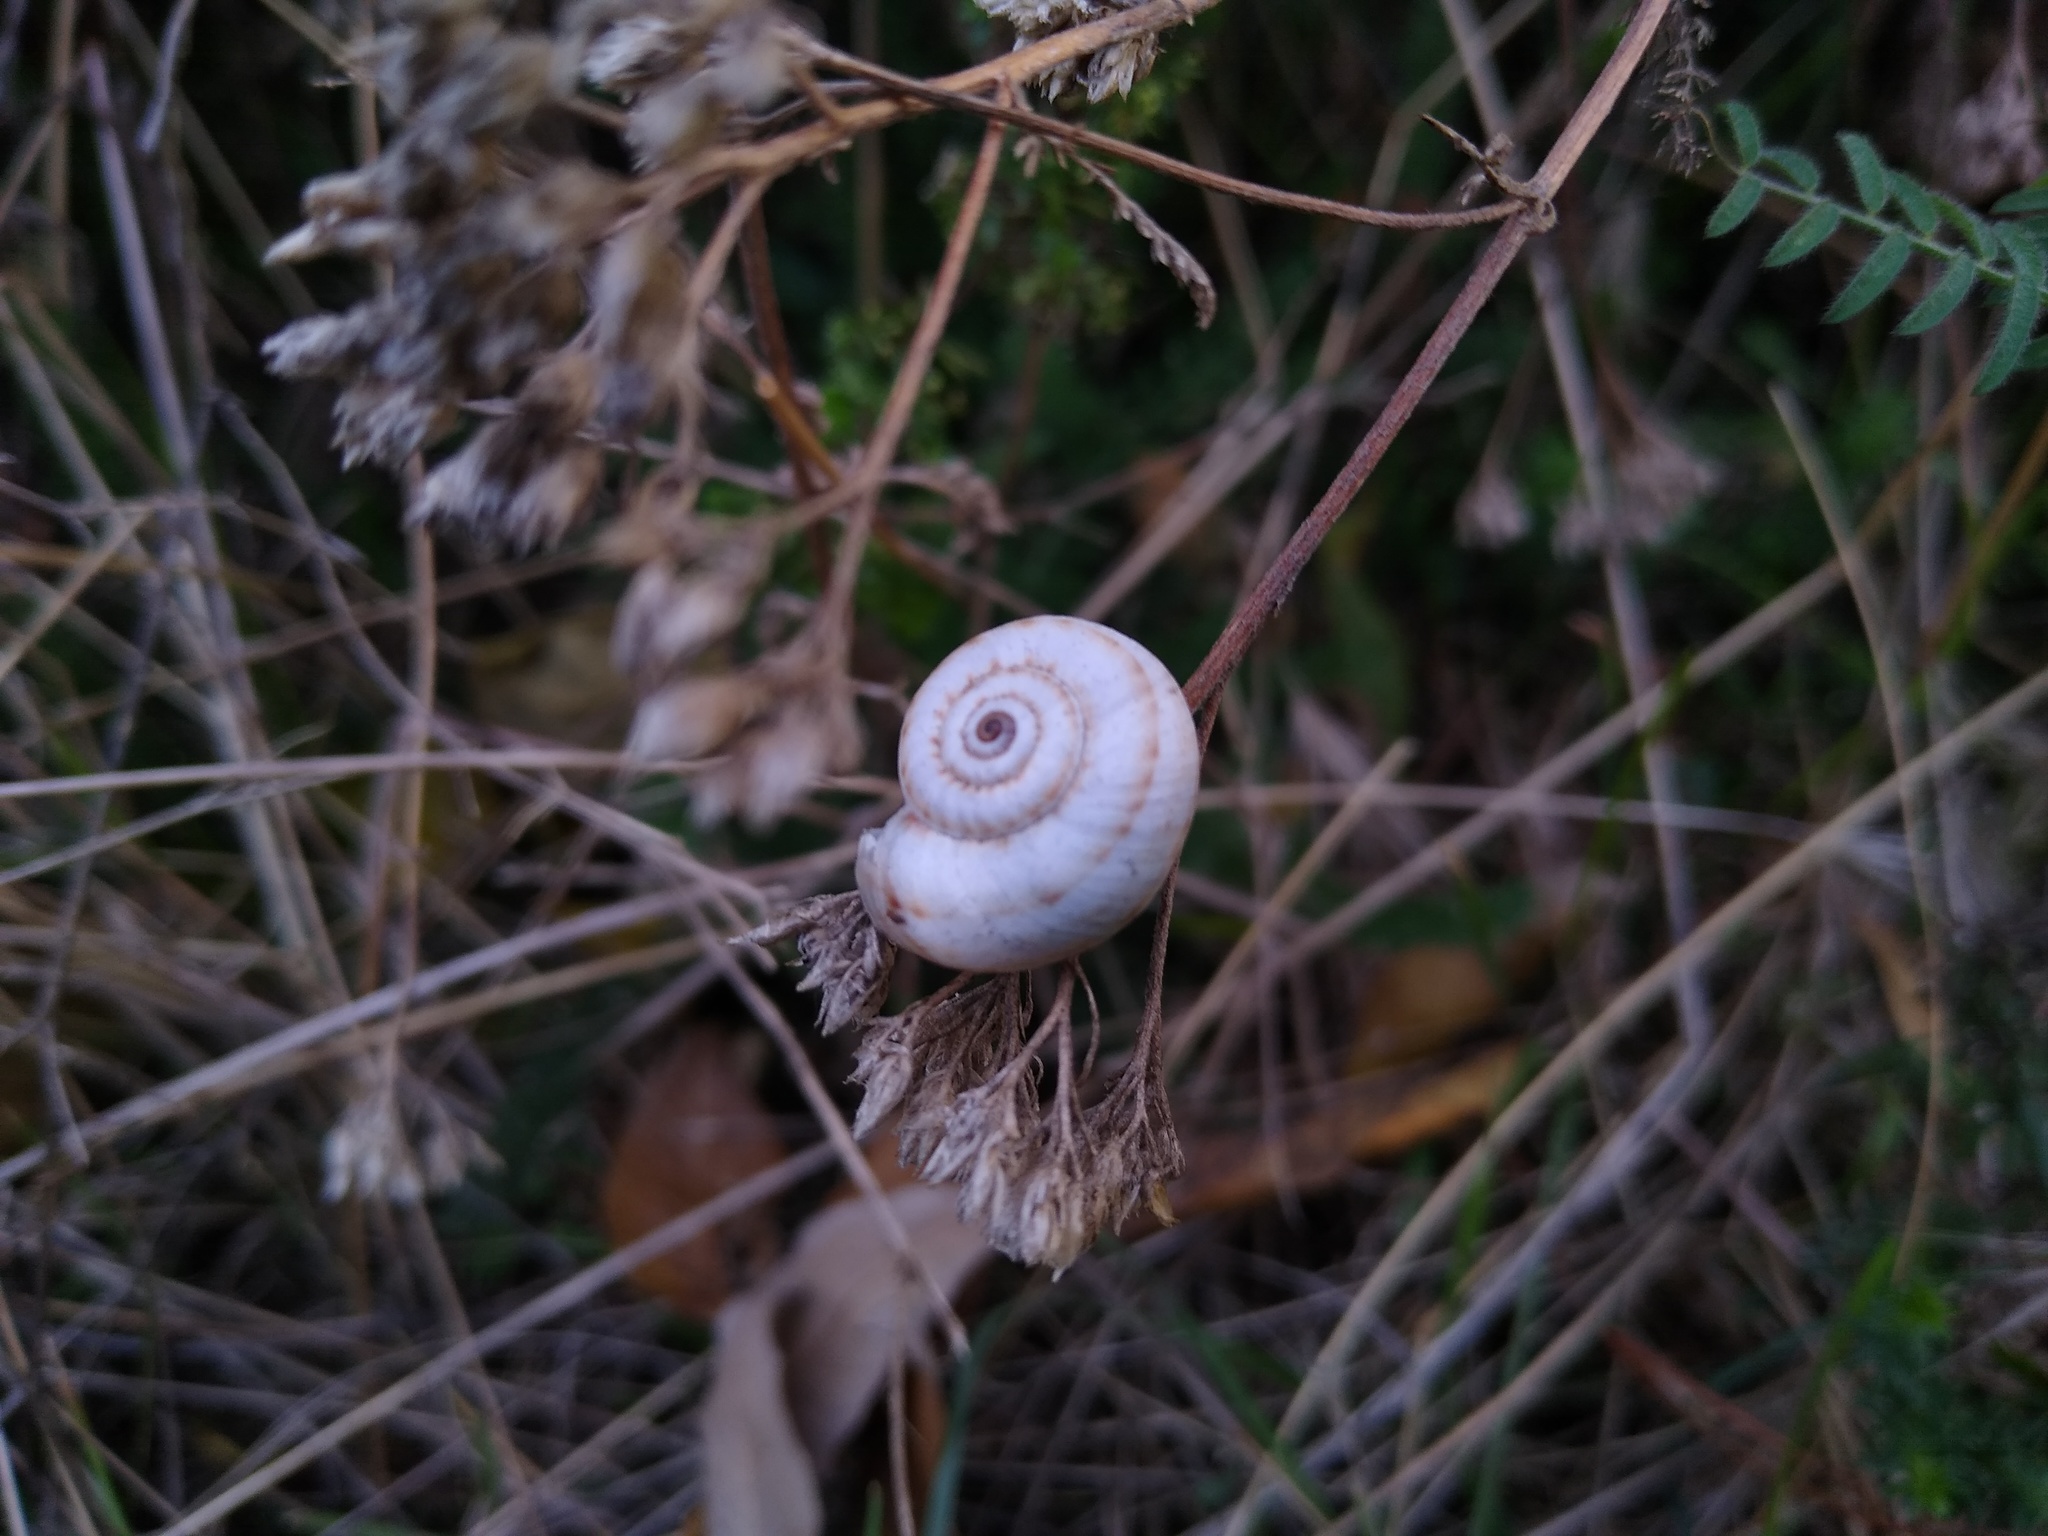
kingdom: Animalia
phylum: Mollusca
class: Gastropoda
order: Stylommatophora
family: Geomitridae
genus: Xeropicta
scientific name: Xeropicta derbentina
